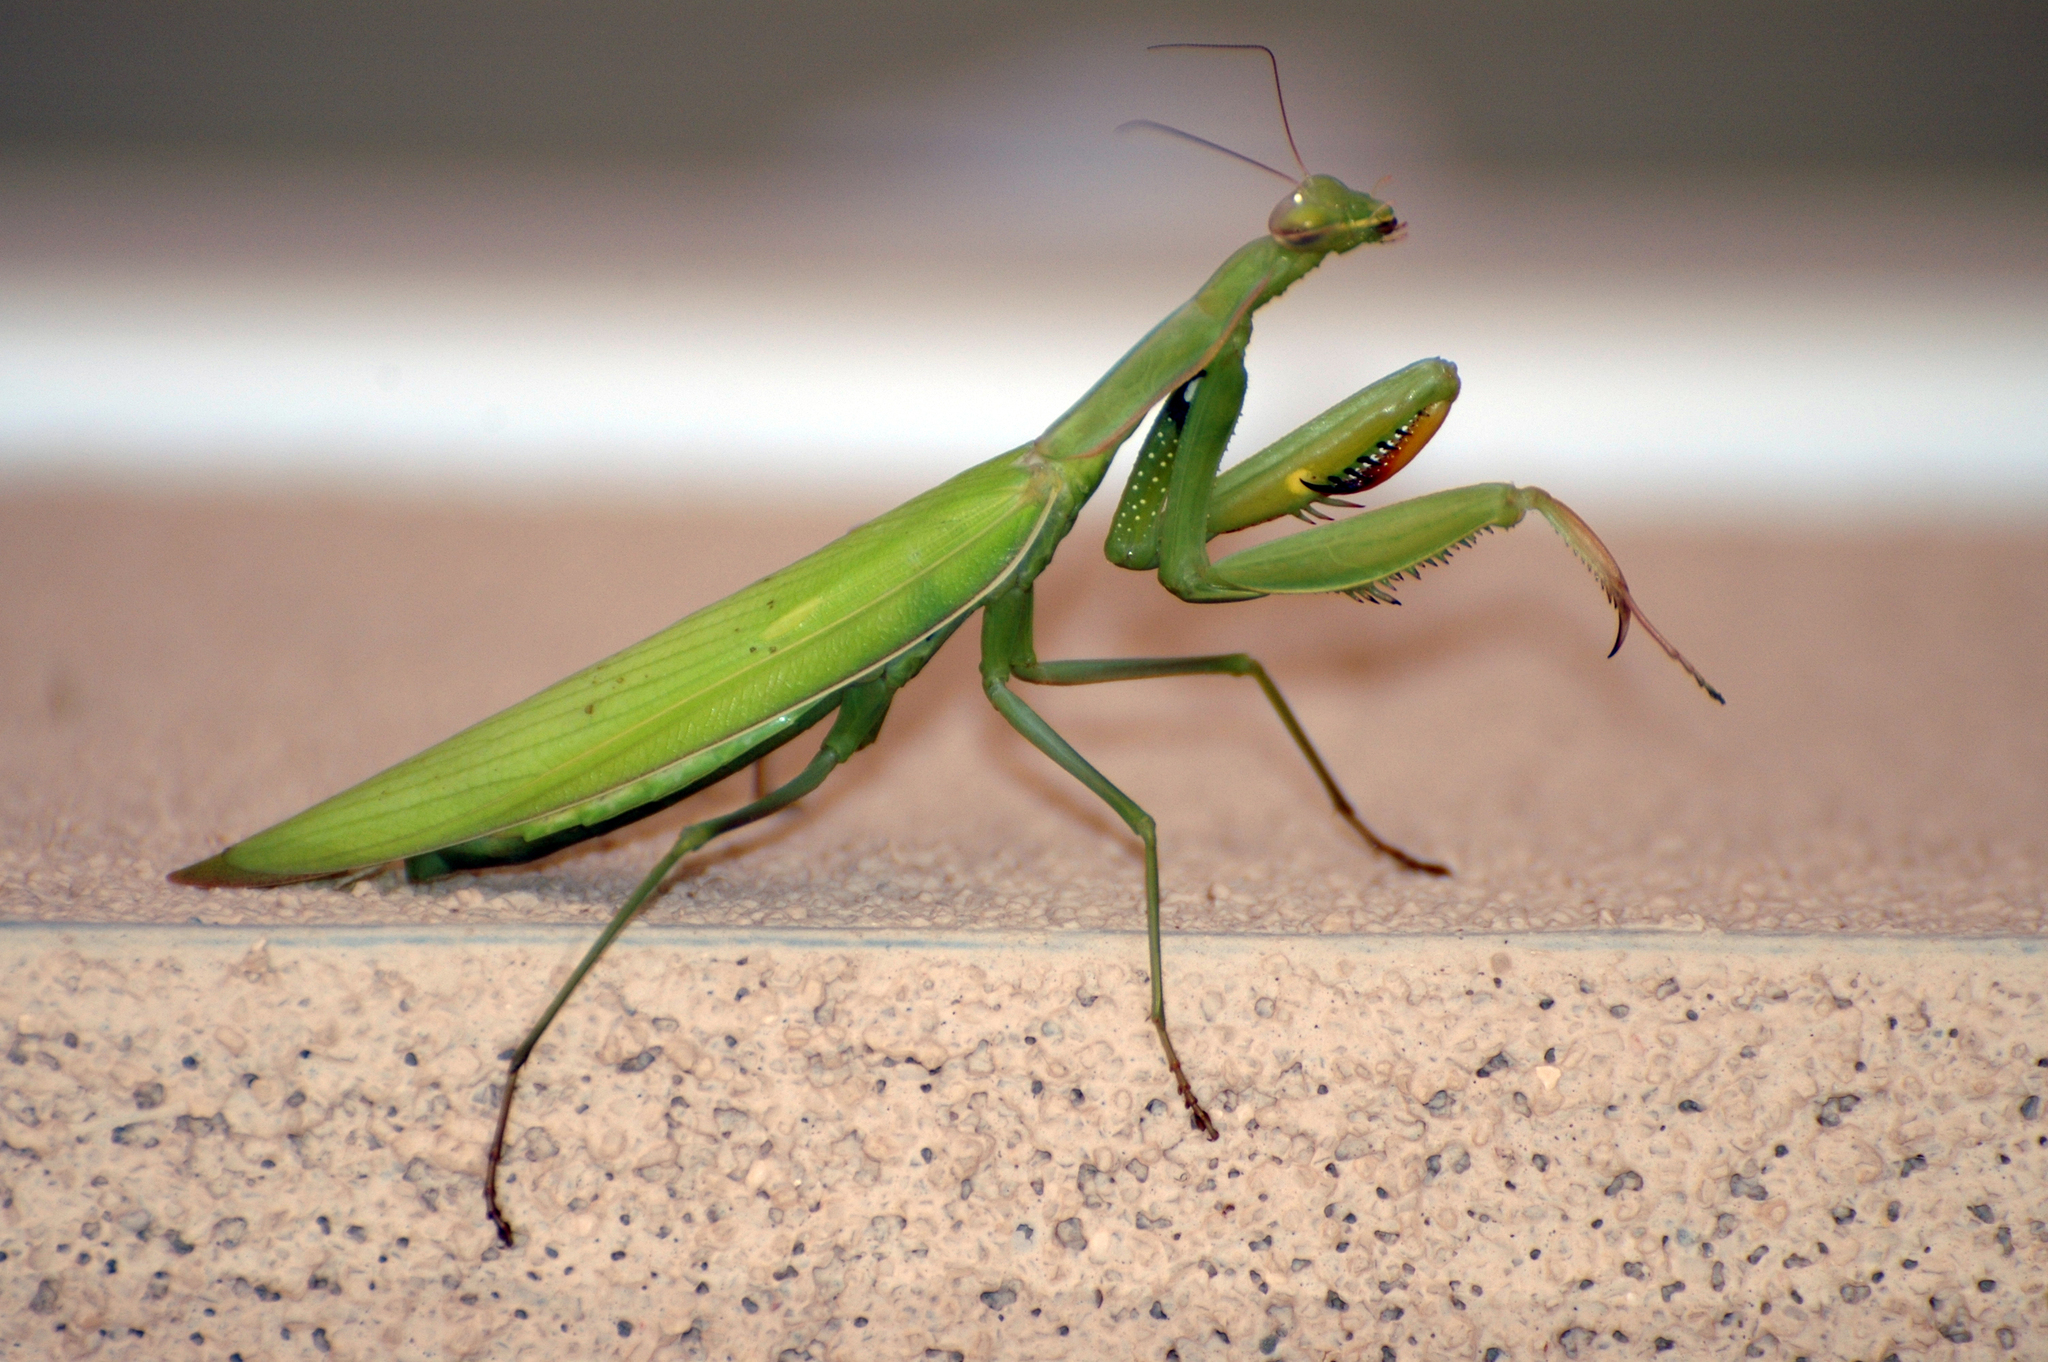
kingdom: Animalia
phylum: Arthropoda
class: Insecta
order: Mantodea
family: Mantidae
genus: Mantis
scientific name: Mantis religiosa
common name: Praying mantis
